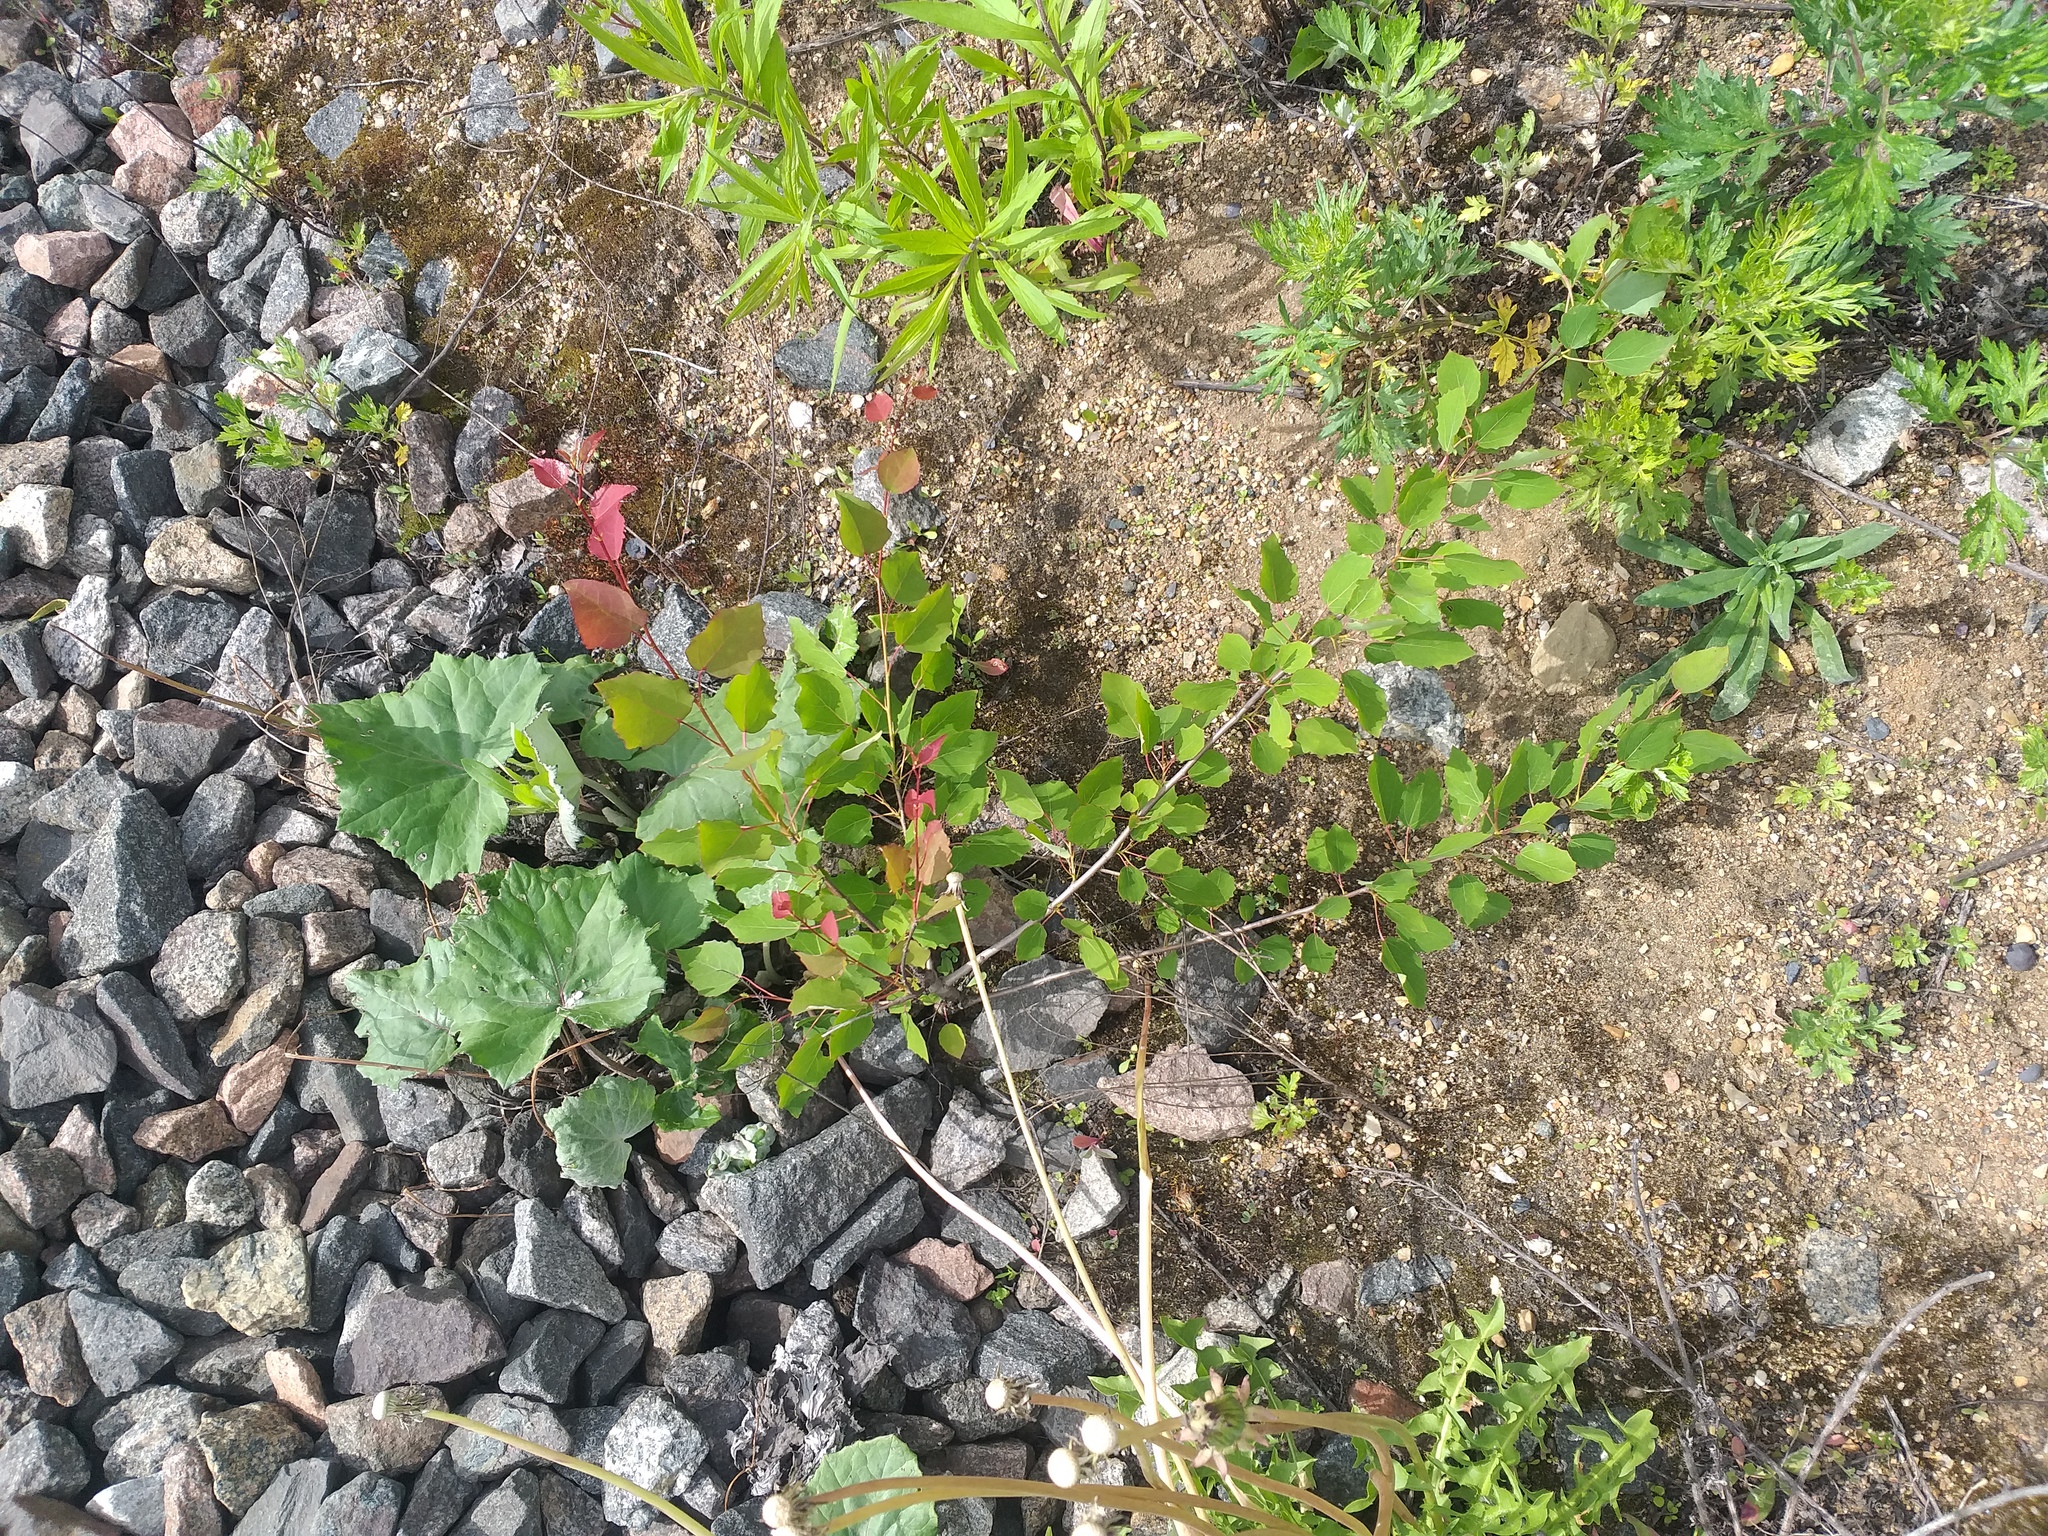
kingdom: Plantae
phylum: Tracheophyta
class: Magnoliopsida
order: Malpighiales
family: Salicaceae
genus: Populus
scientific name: Populus tremula
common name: European aspen
